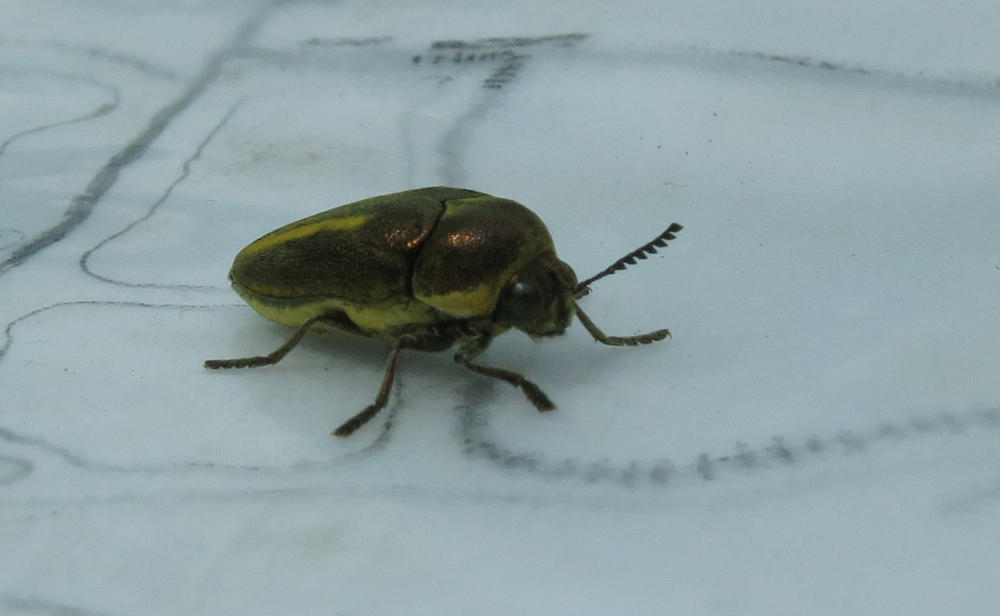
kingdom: Animalia
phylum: Arthropoda
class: Insecta
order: Coleoptera
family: Buprestidae
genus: Neojulodis
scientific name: Neojulodis vittipennis
